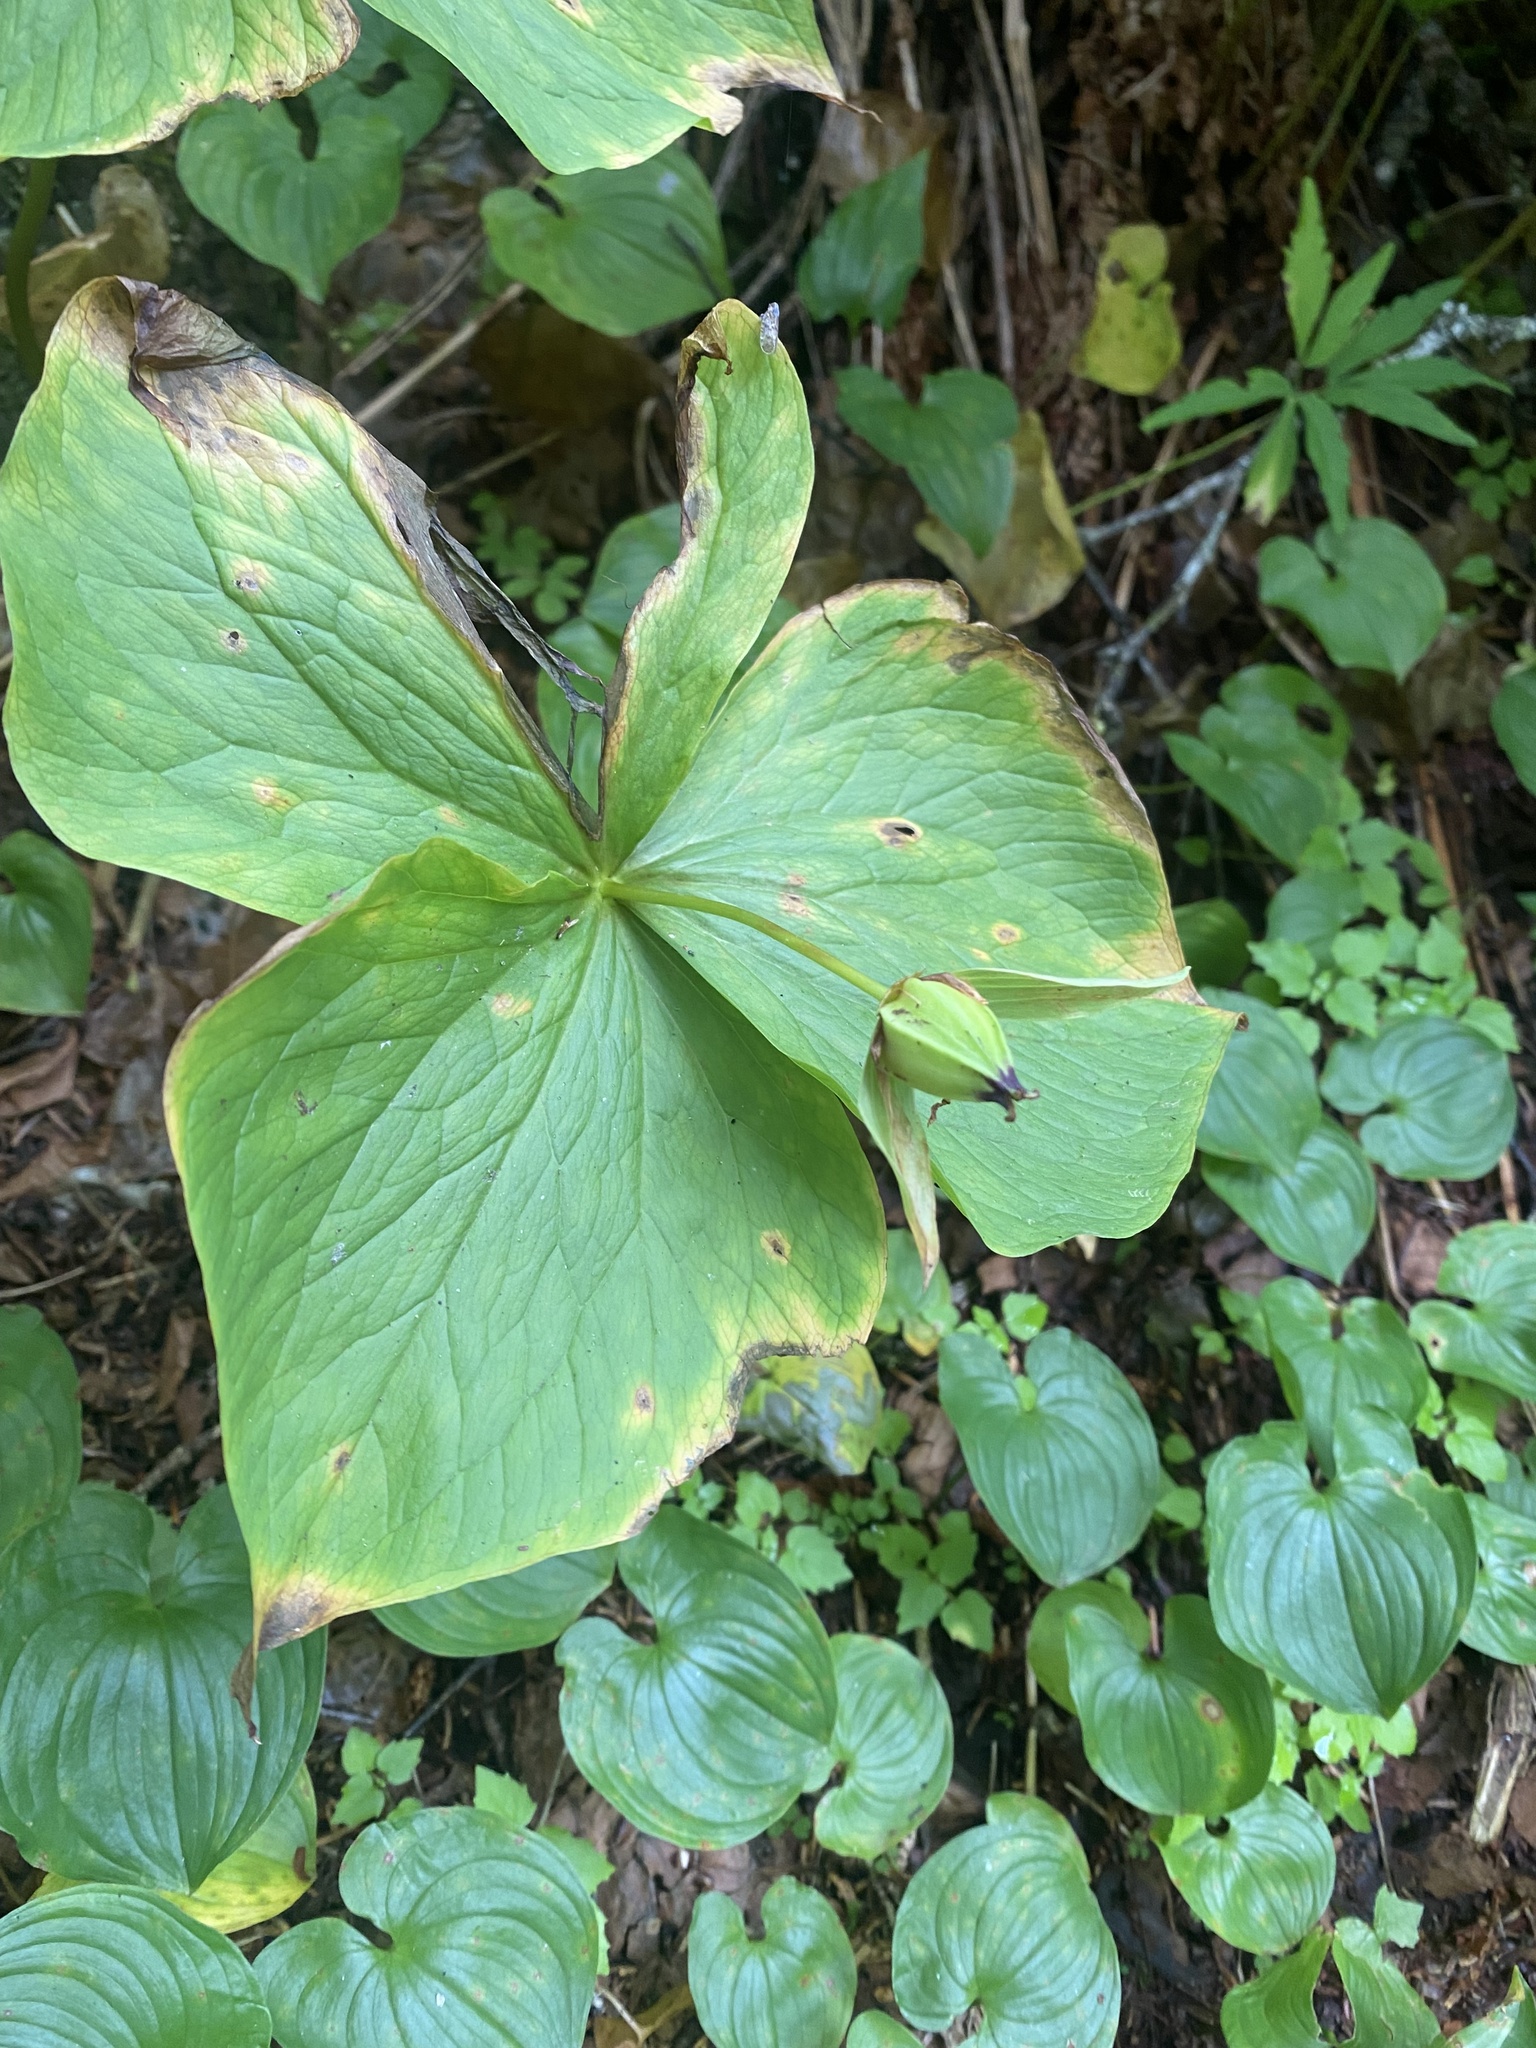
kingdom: Plantae
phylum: Tracheophyta
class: Liliopsida
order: Liliales
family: Melanthiaceae
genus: Trillium
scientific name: Trillium camschatcense
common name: Kamchatka trillium
